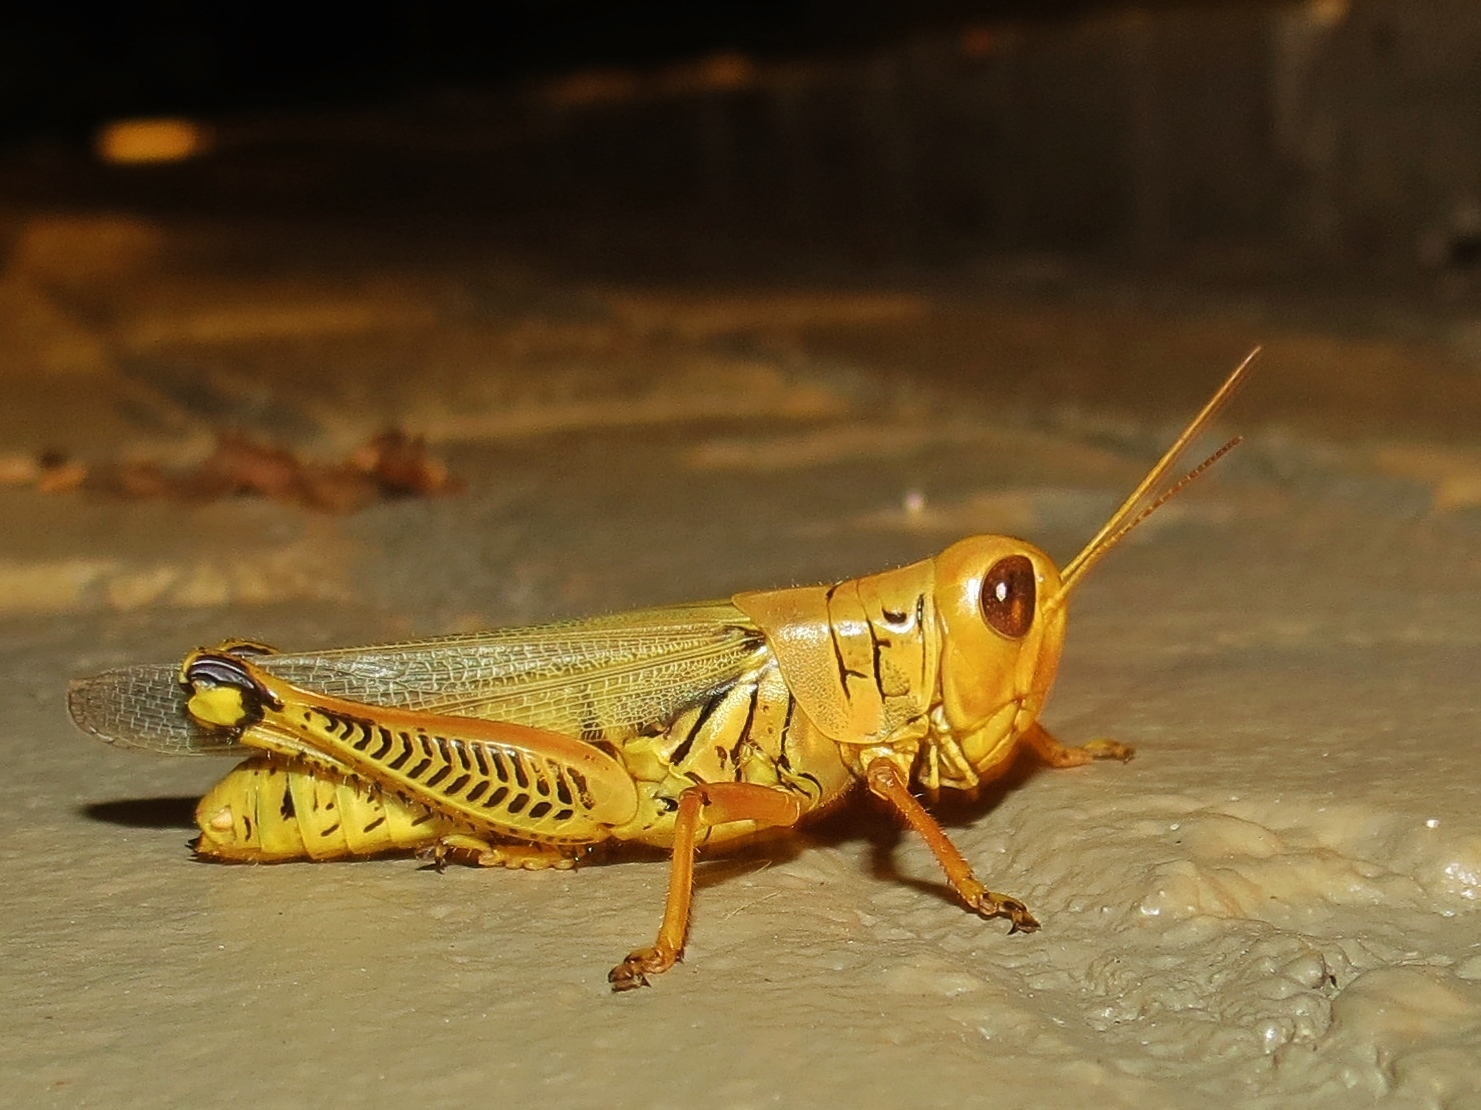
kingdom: Animalia
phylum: Arthropoda
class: Insecta
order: Orthoptera
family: Acrididae
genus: Melanoplus
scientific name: Melanoplus differentialis
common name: Differential grasshopper
